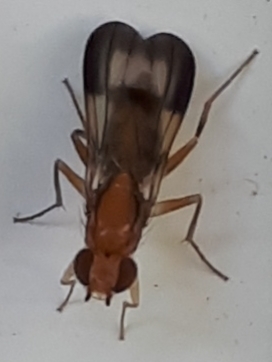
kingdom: Animalia
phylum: Arthropoda
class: Insecta
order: Diptera
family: Clusiidae
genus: Clusia
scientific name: Clusia czernyi
